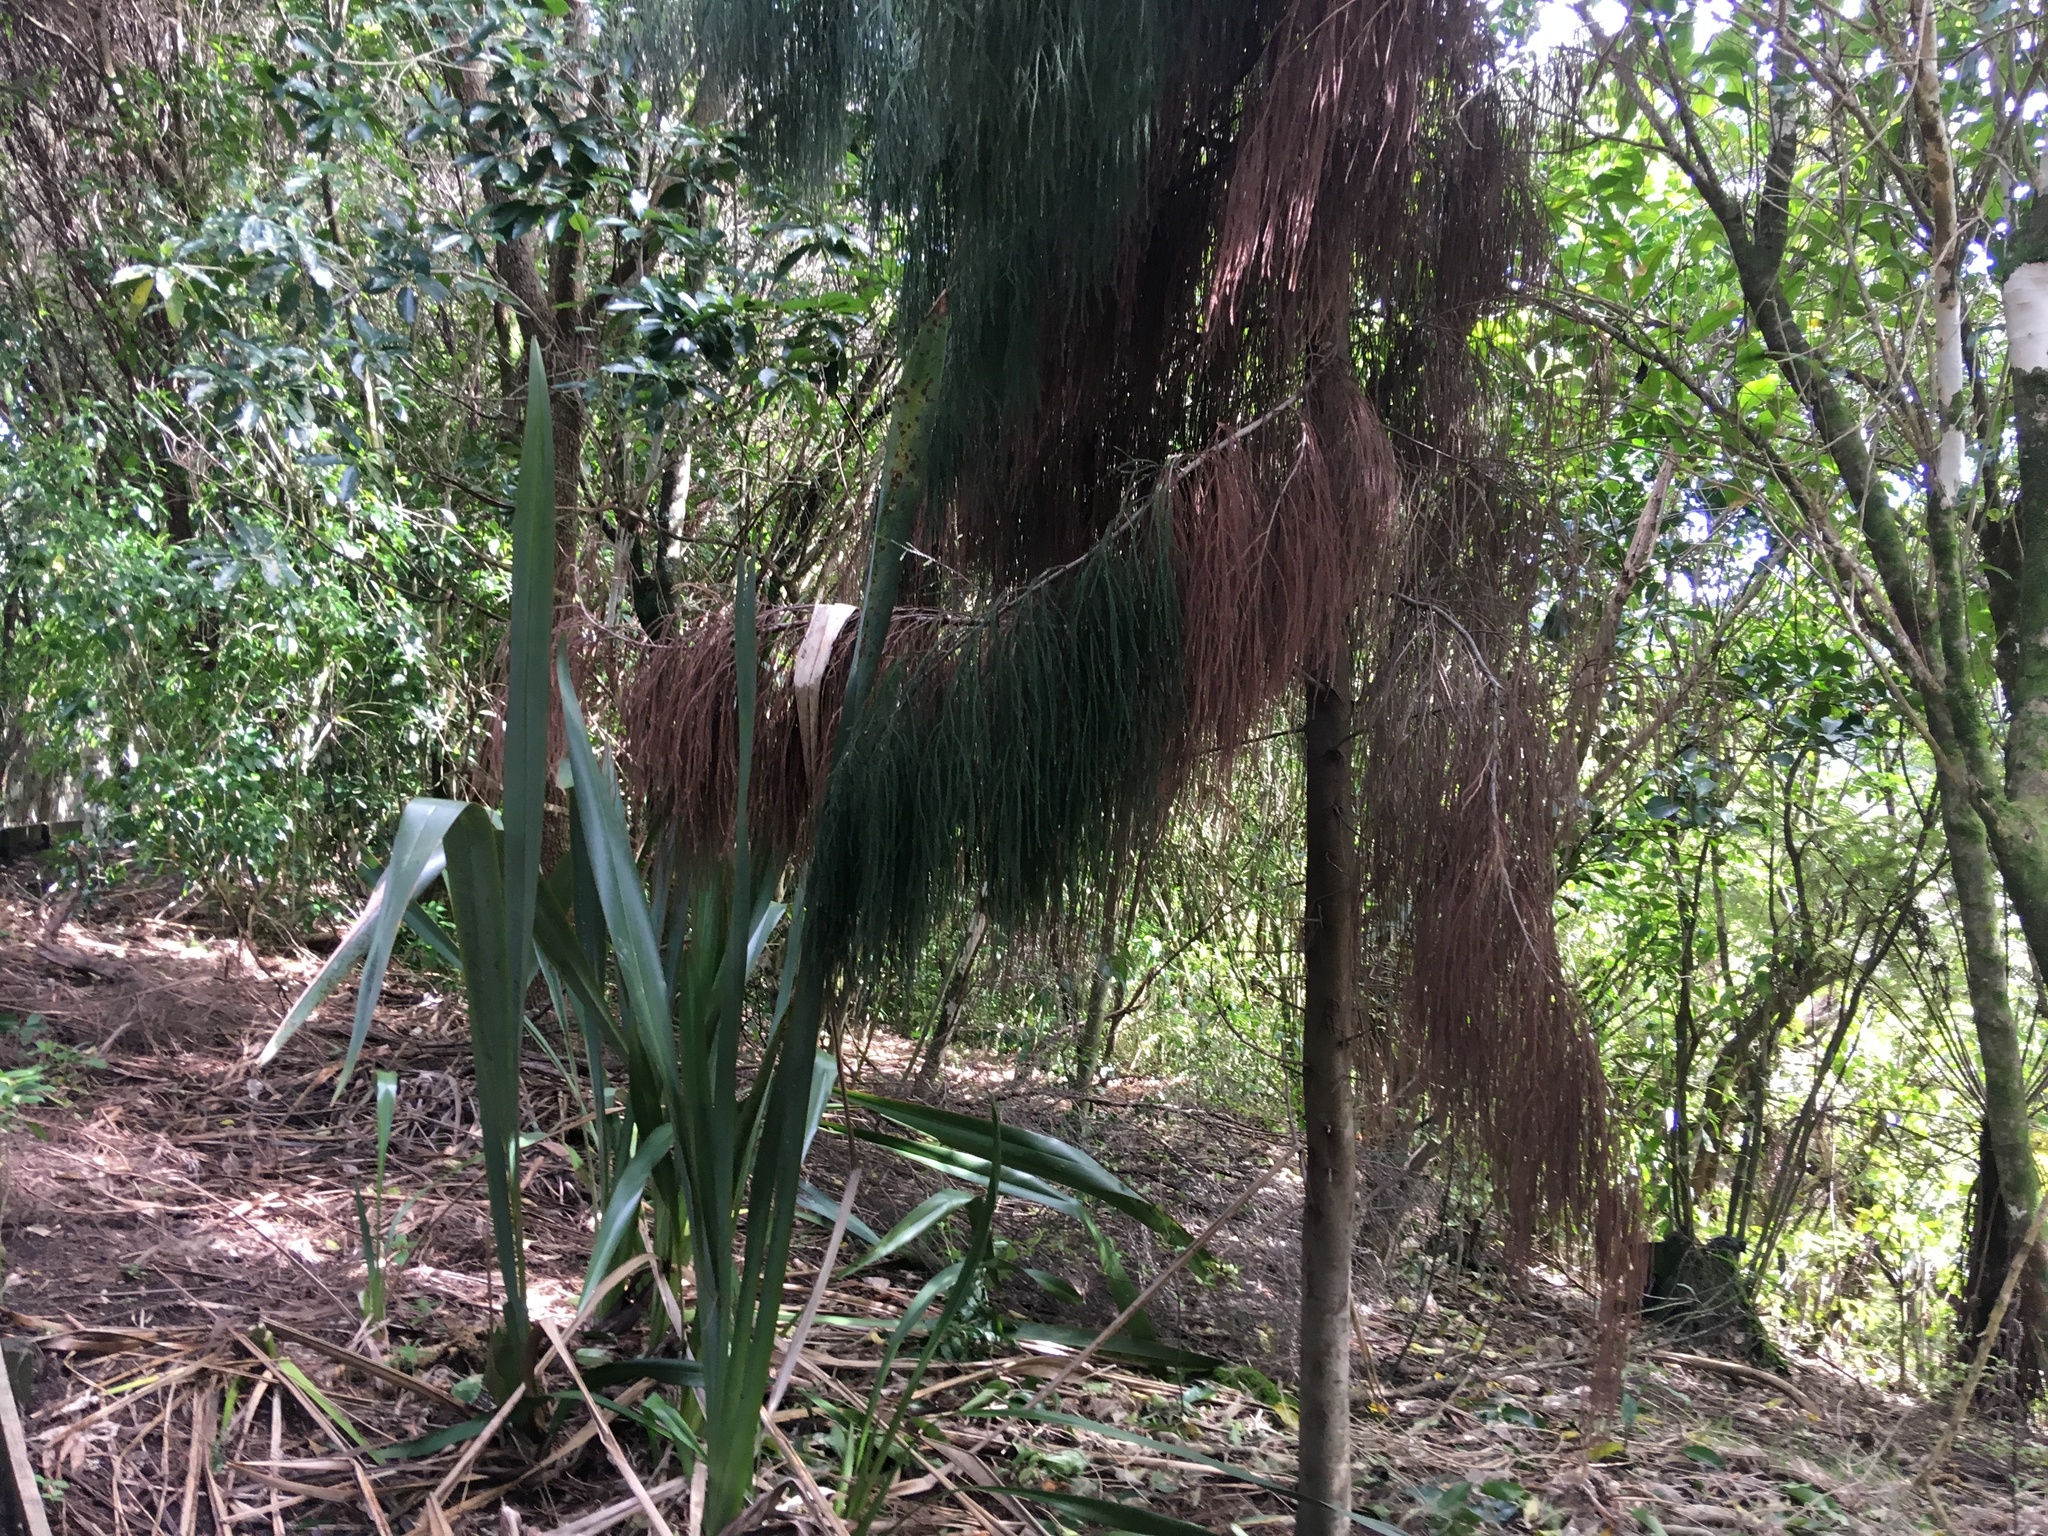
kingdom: Plantae
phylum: Tracheophyta
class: Liliopsida
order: Asparagales
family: Asphodelaceae
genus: Phormium
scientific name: Phormium tenax
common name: New zealand flax
